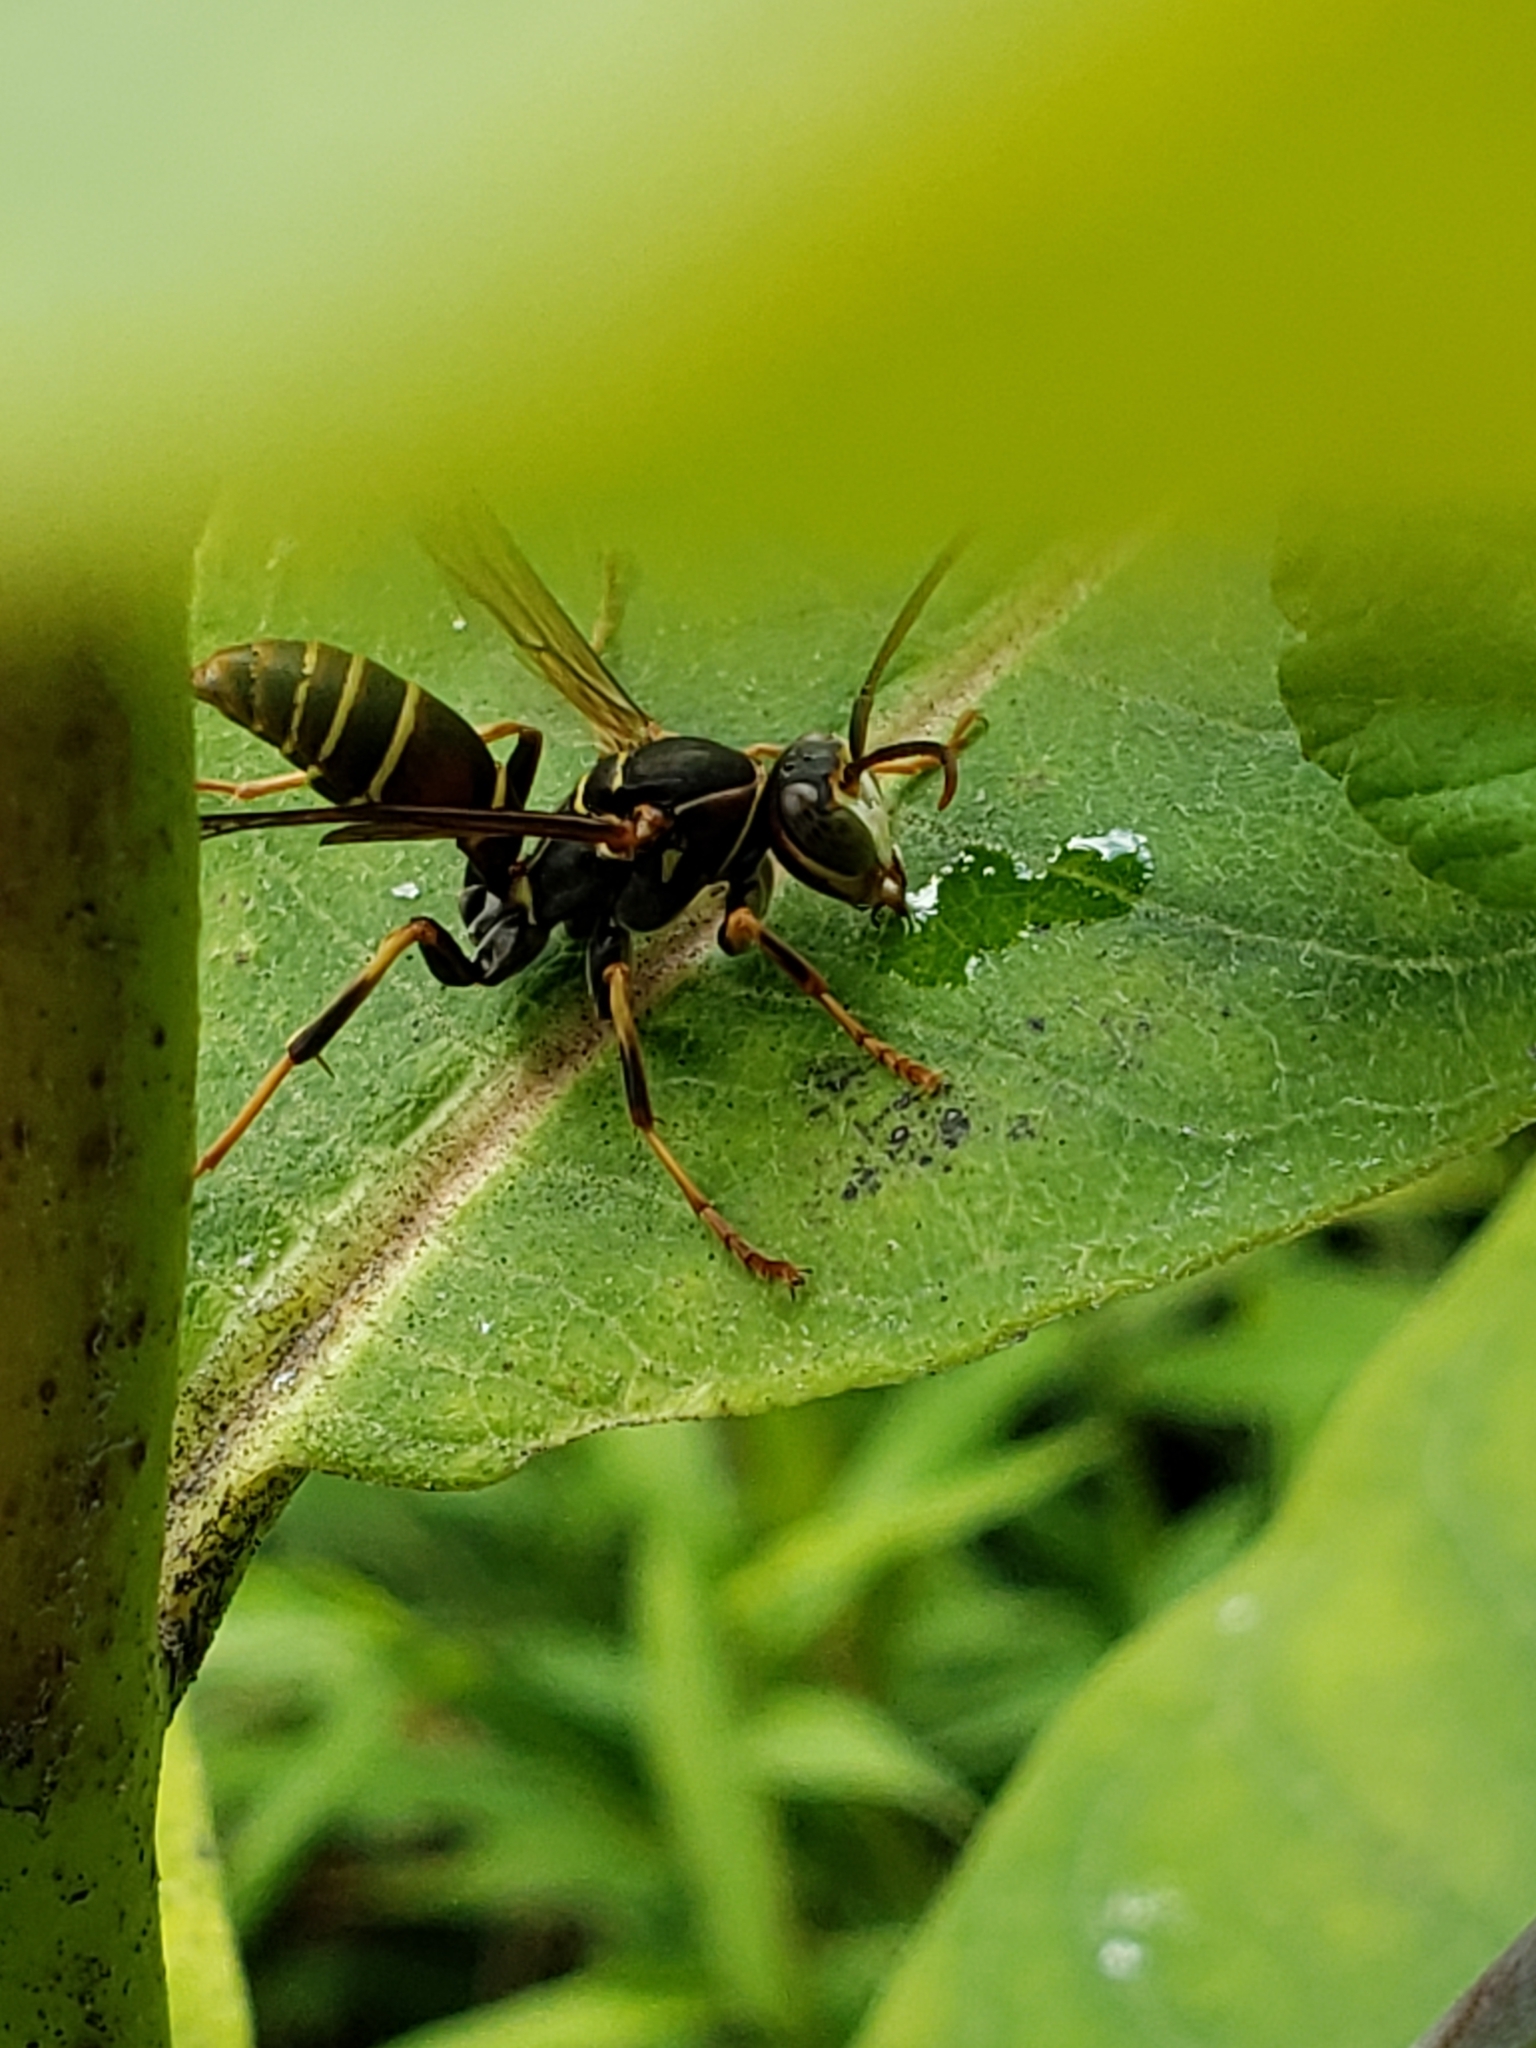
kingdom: Animalia
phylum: Arthropoda
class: Insecta
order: Hymenoptera
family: Eumenidae
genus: Polistes
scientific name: Polistes fuscatus
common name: Dark paper wasp
